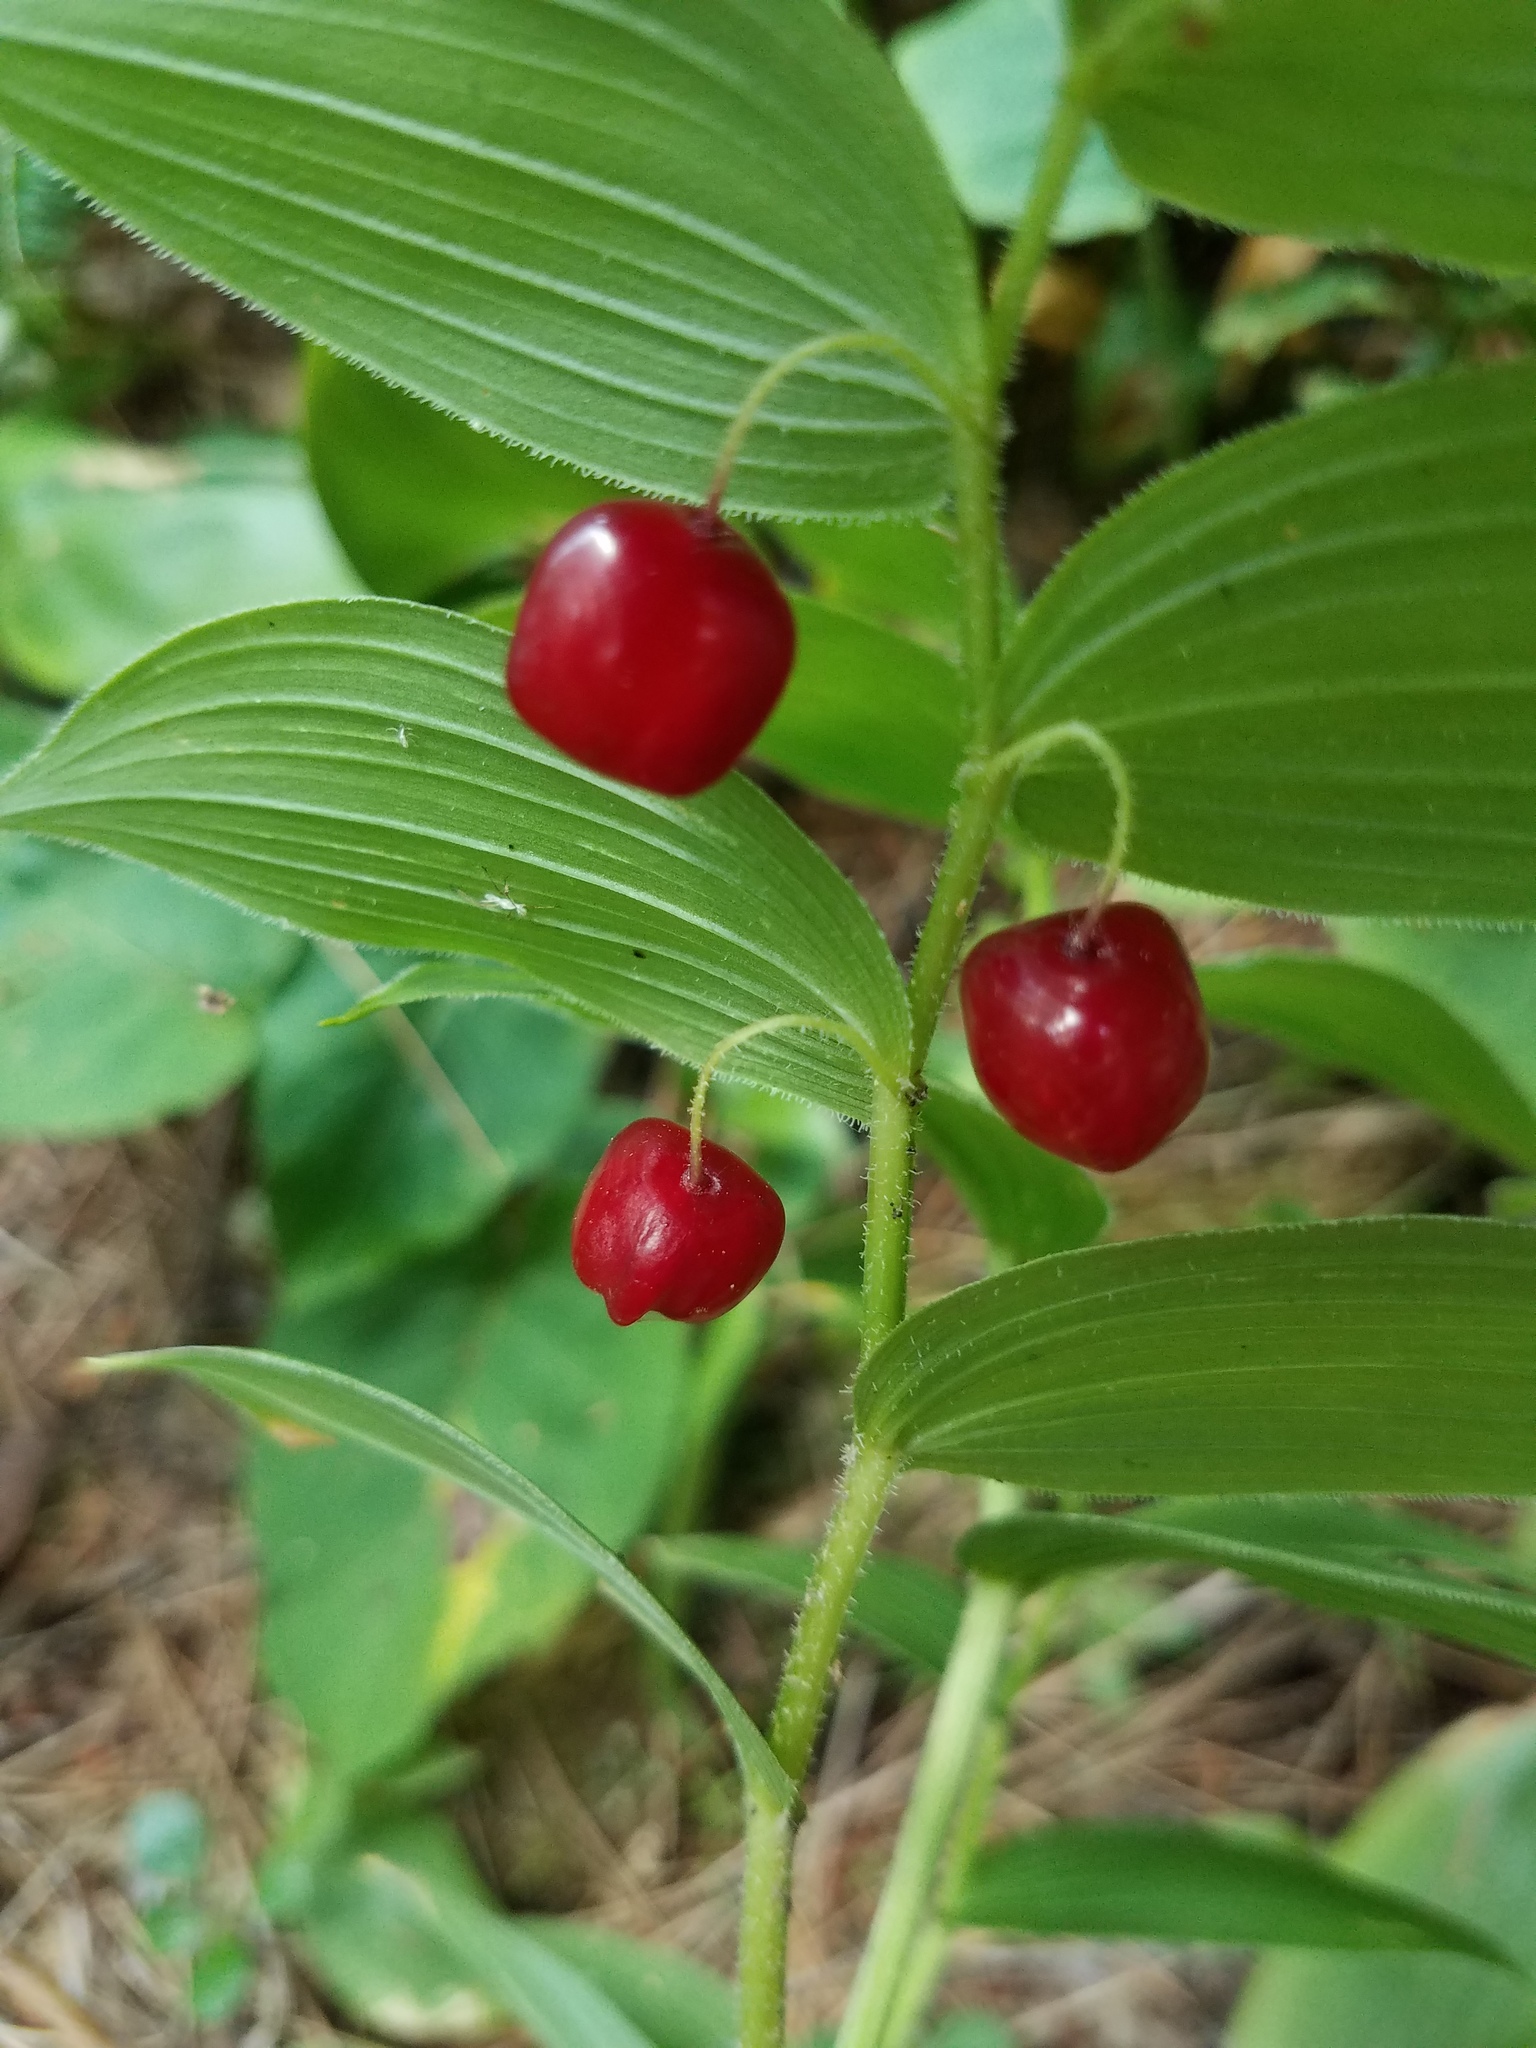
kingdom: Plantae
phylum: Tracheophyta
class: Liliopsida
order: Liliales
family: Liliaceae
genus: Streptopus
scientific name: Streptopus lanceolatus
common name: Rose mandarin
